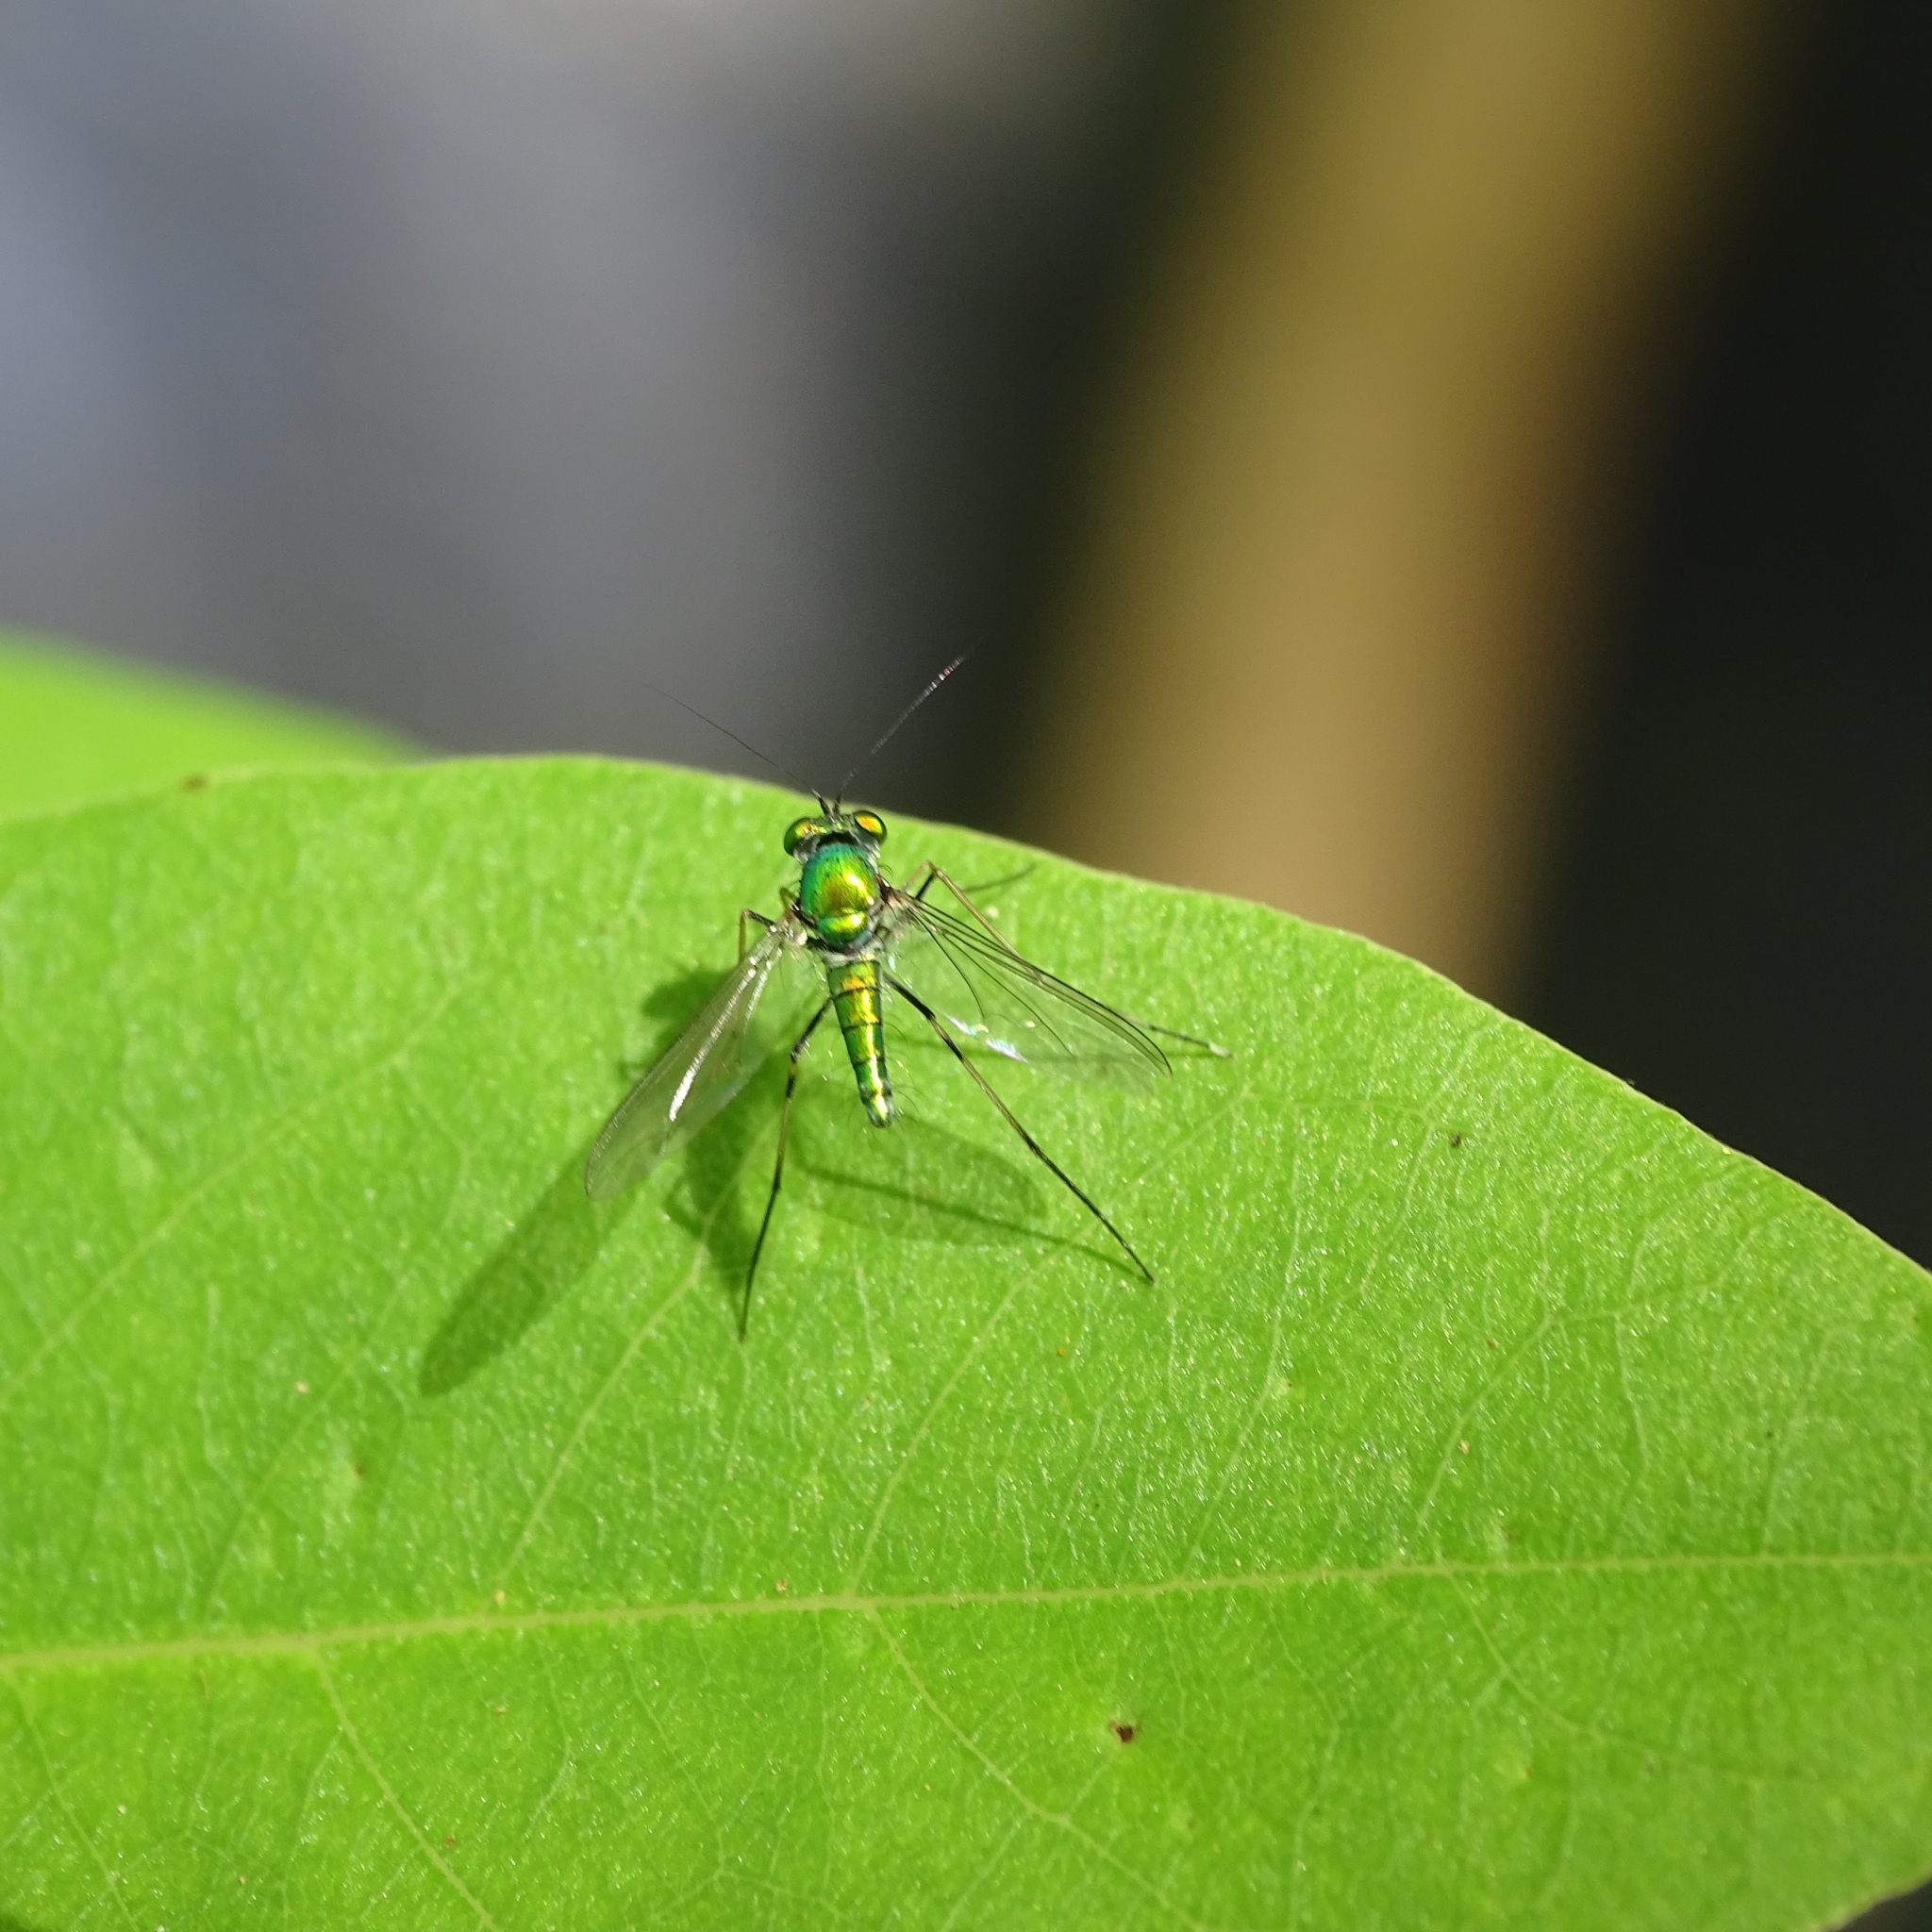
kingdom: Animalia
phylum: Arthropoda
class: Insecta
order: Diptera
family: Dolichopodidae
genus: Chrysosoma
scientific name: Chrysosoma leucopogon
